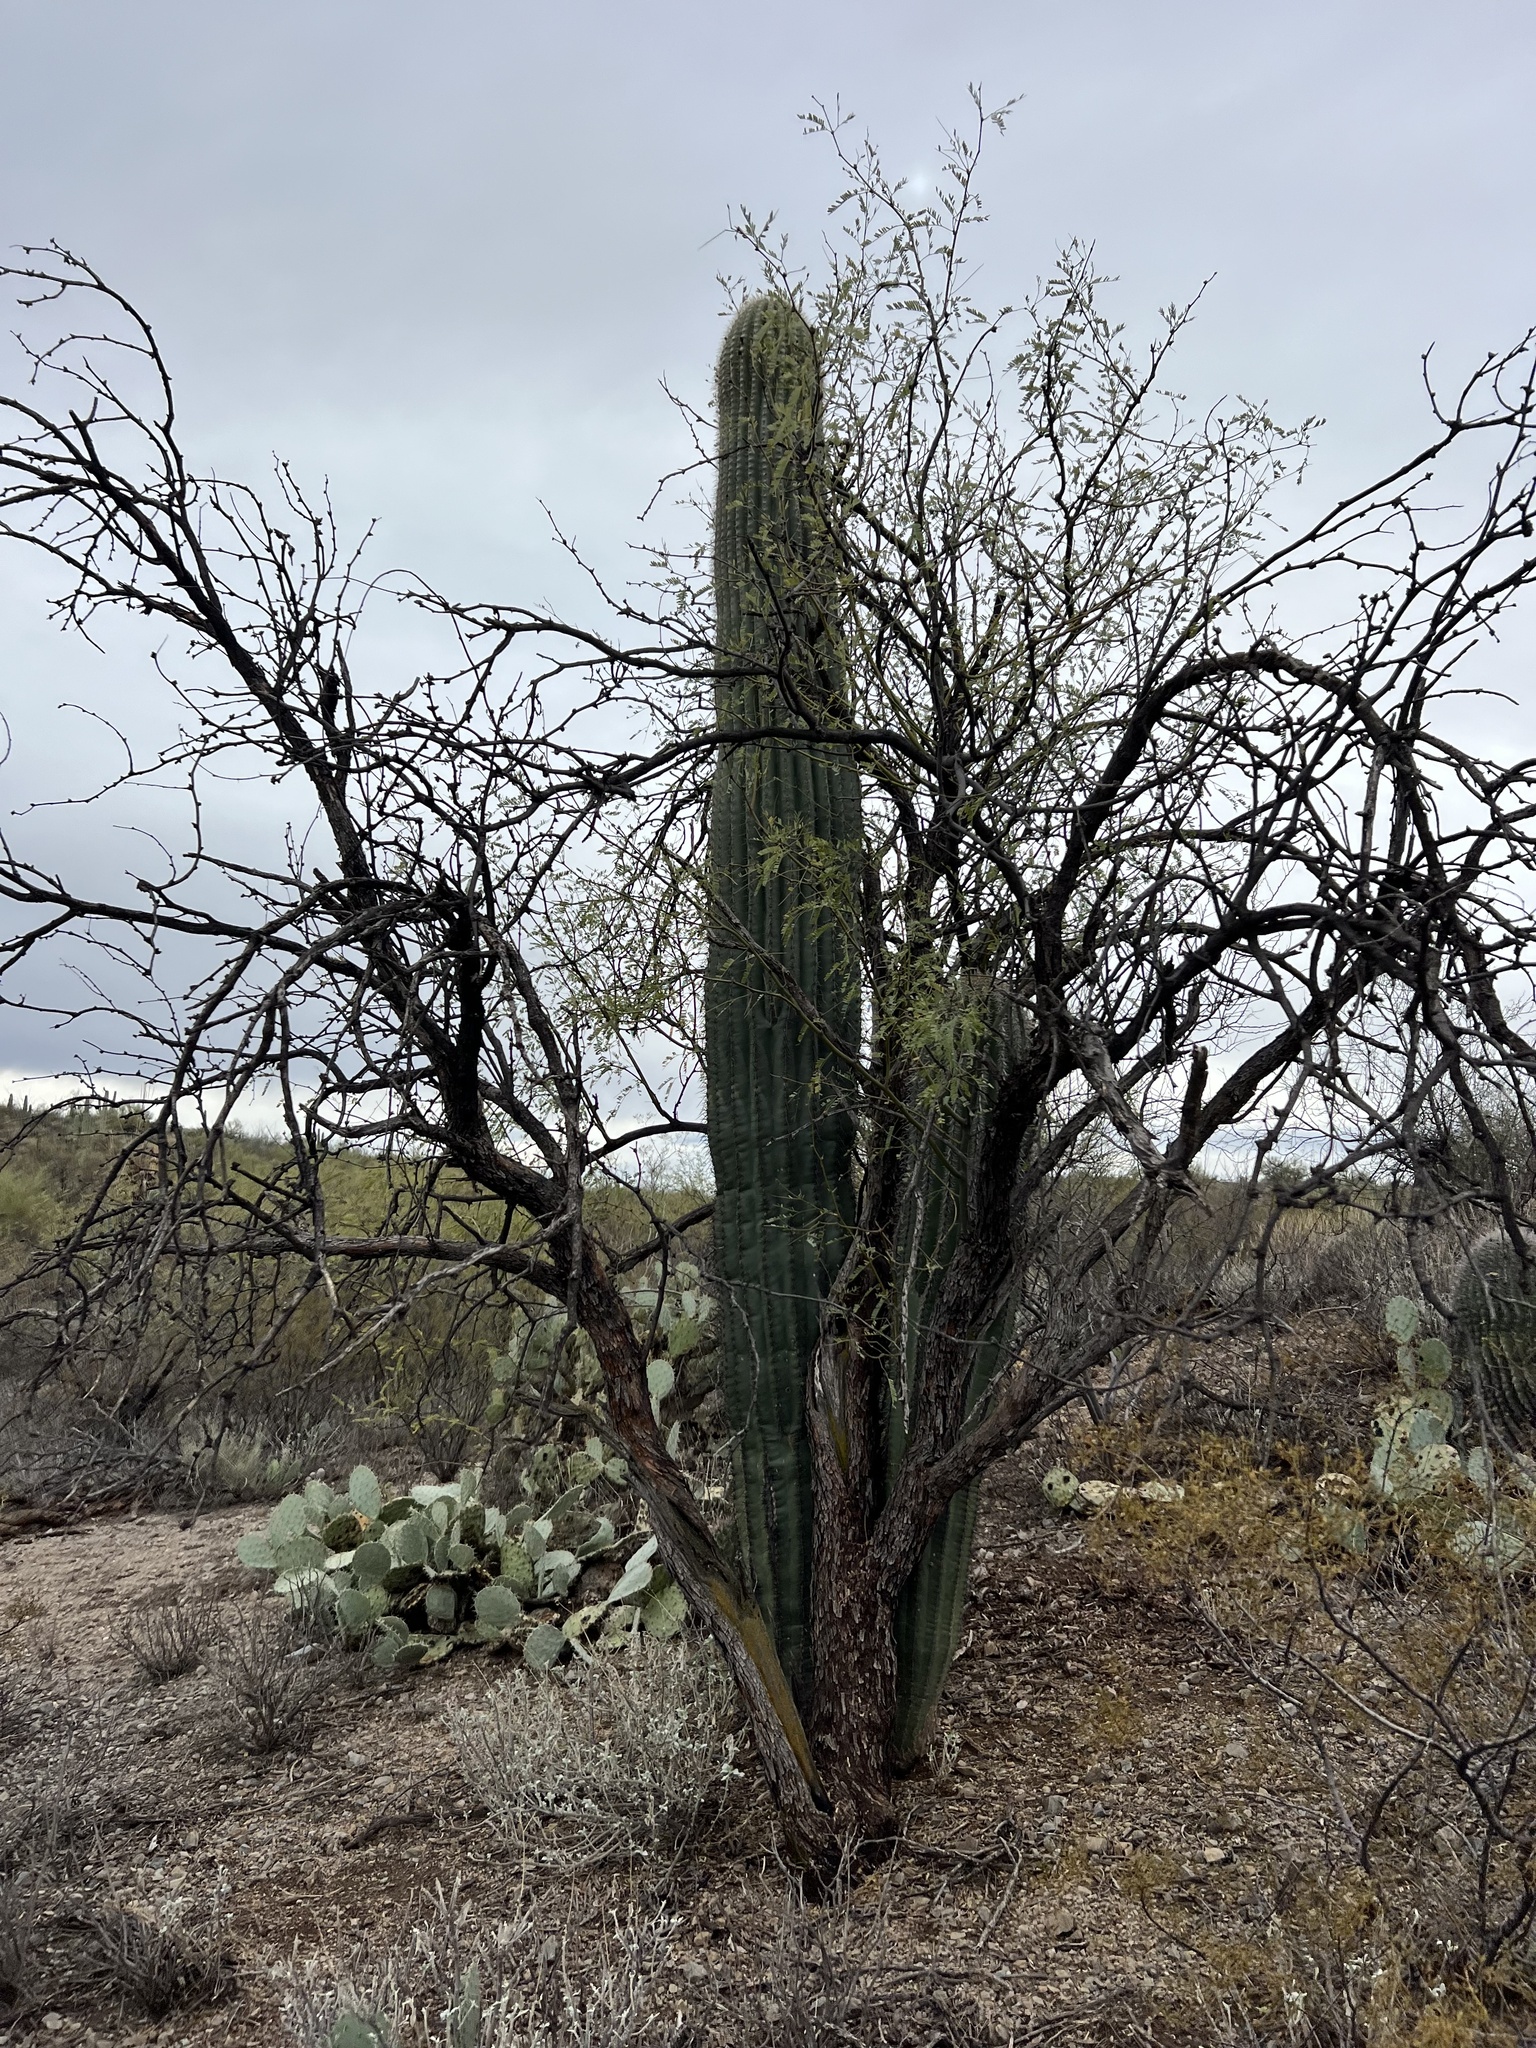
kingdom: Plantae
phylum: Tracheophyta
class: Magnoliopsida
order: Caryophyllales
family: Cactaceae
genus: Carnegiea
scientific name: Carnegiea gigantea
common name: Saguaro
